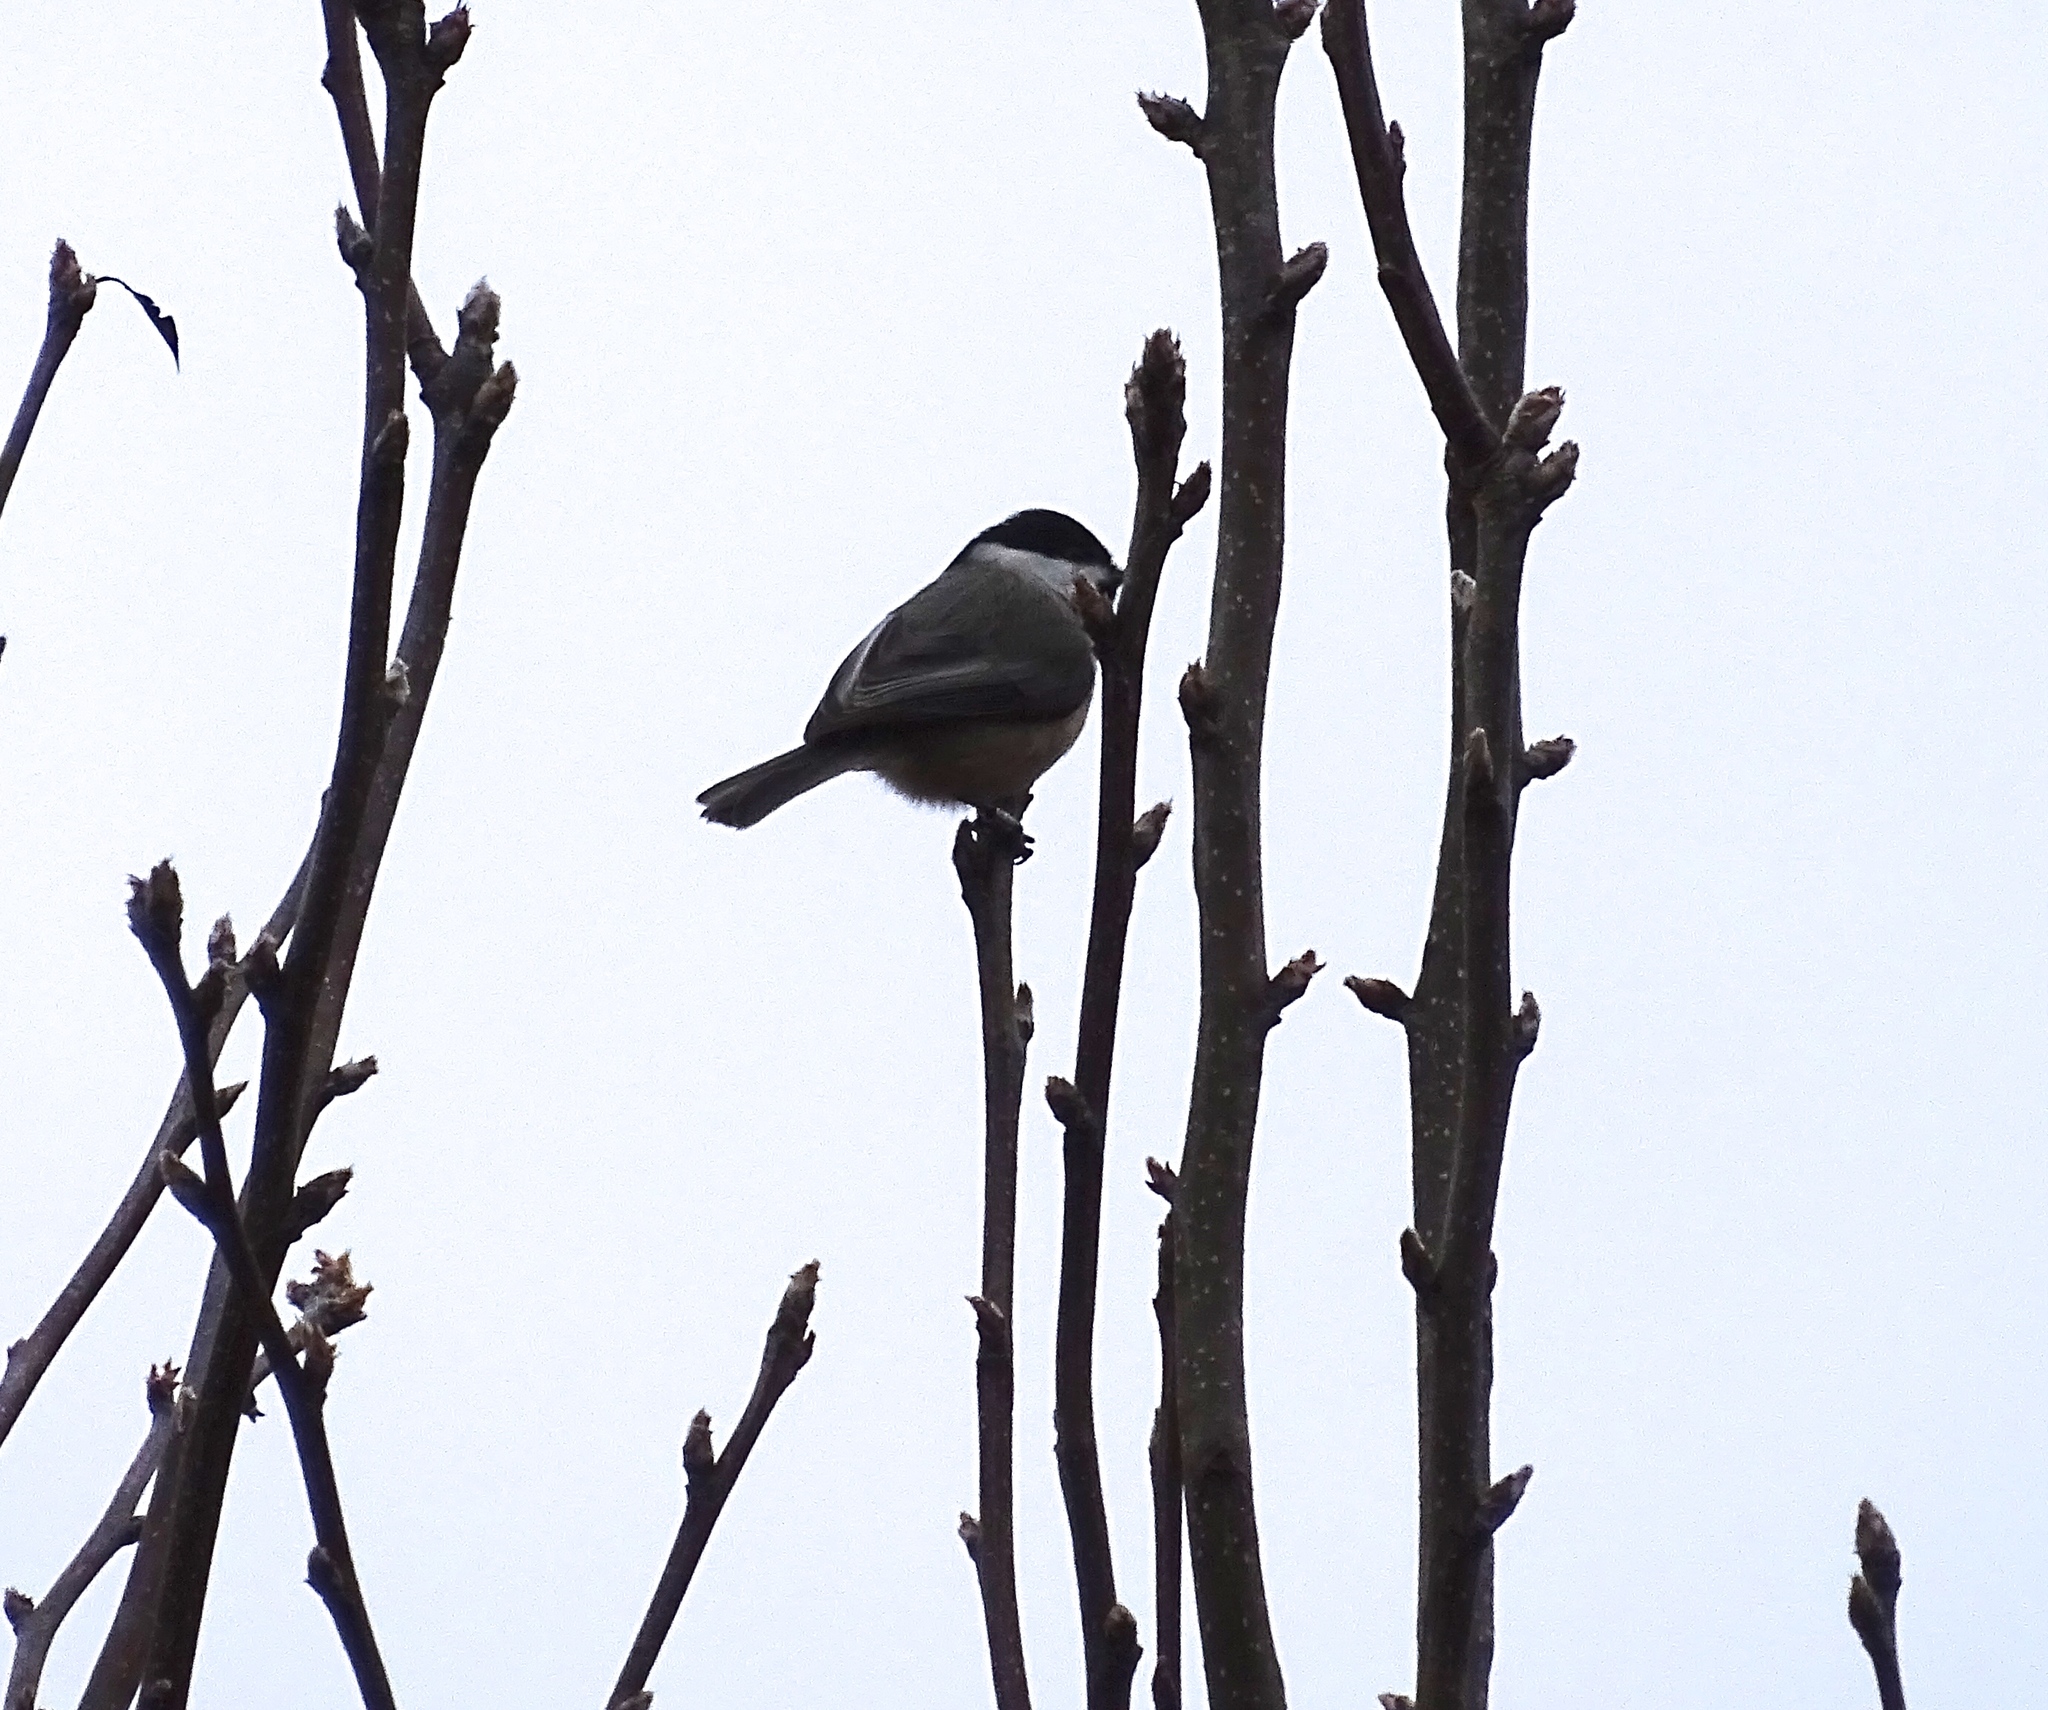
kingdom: Animalia
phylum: Chordata
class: Aves
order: Passeriformes
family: Paridae
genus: Poecile
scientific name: Poecile carolinensis
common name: Carolina chickadee
